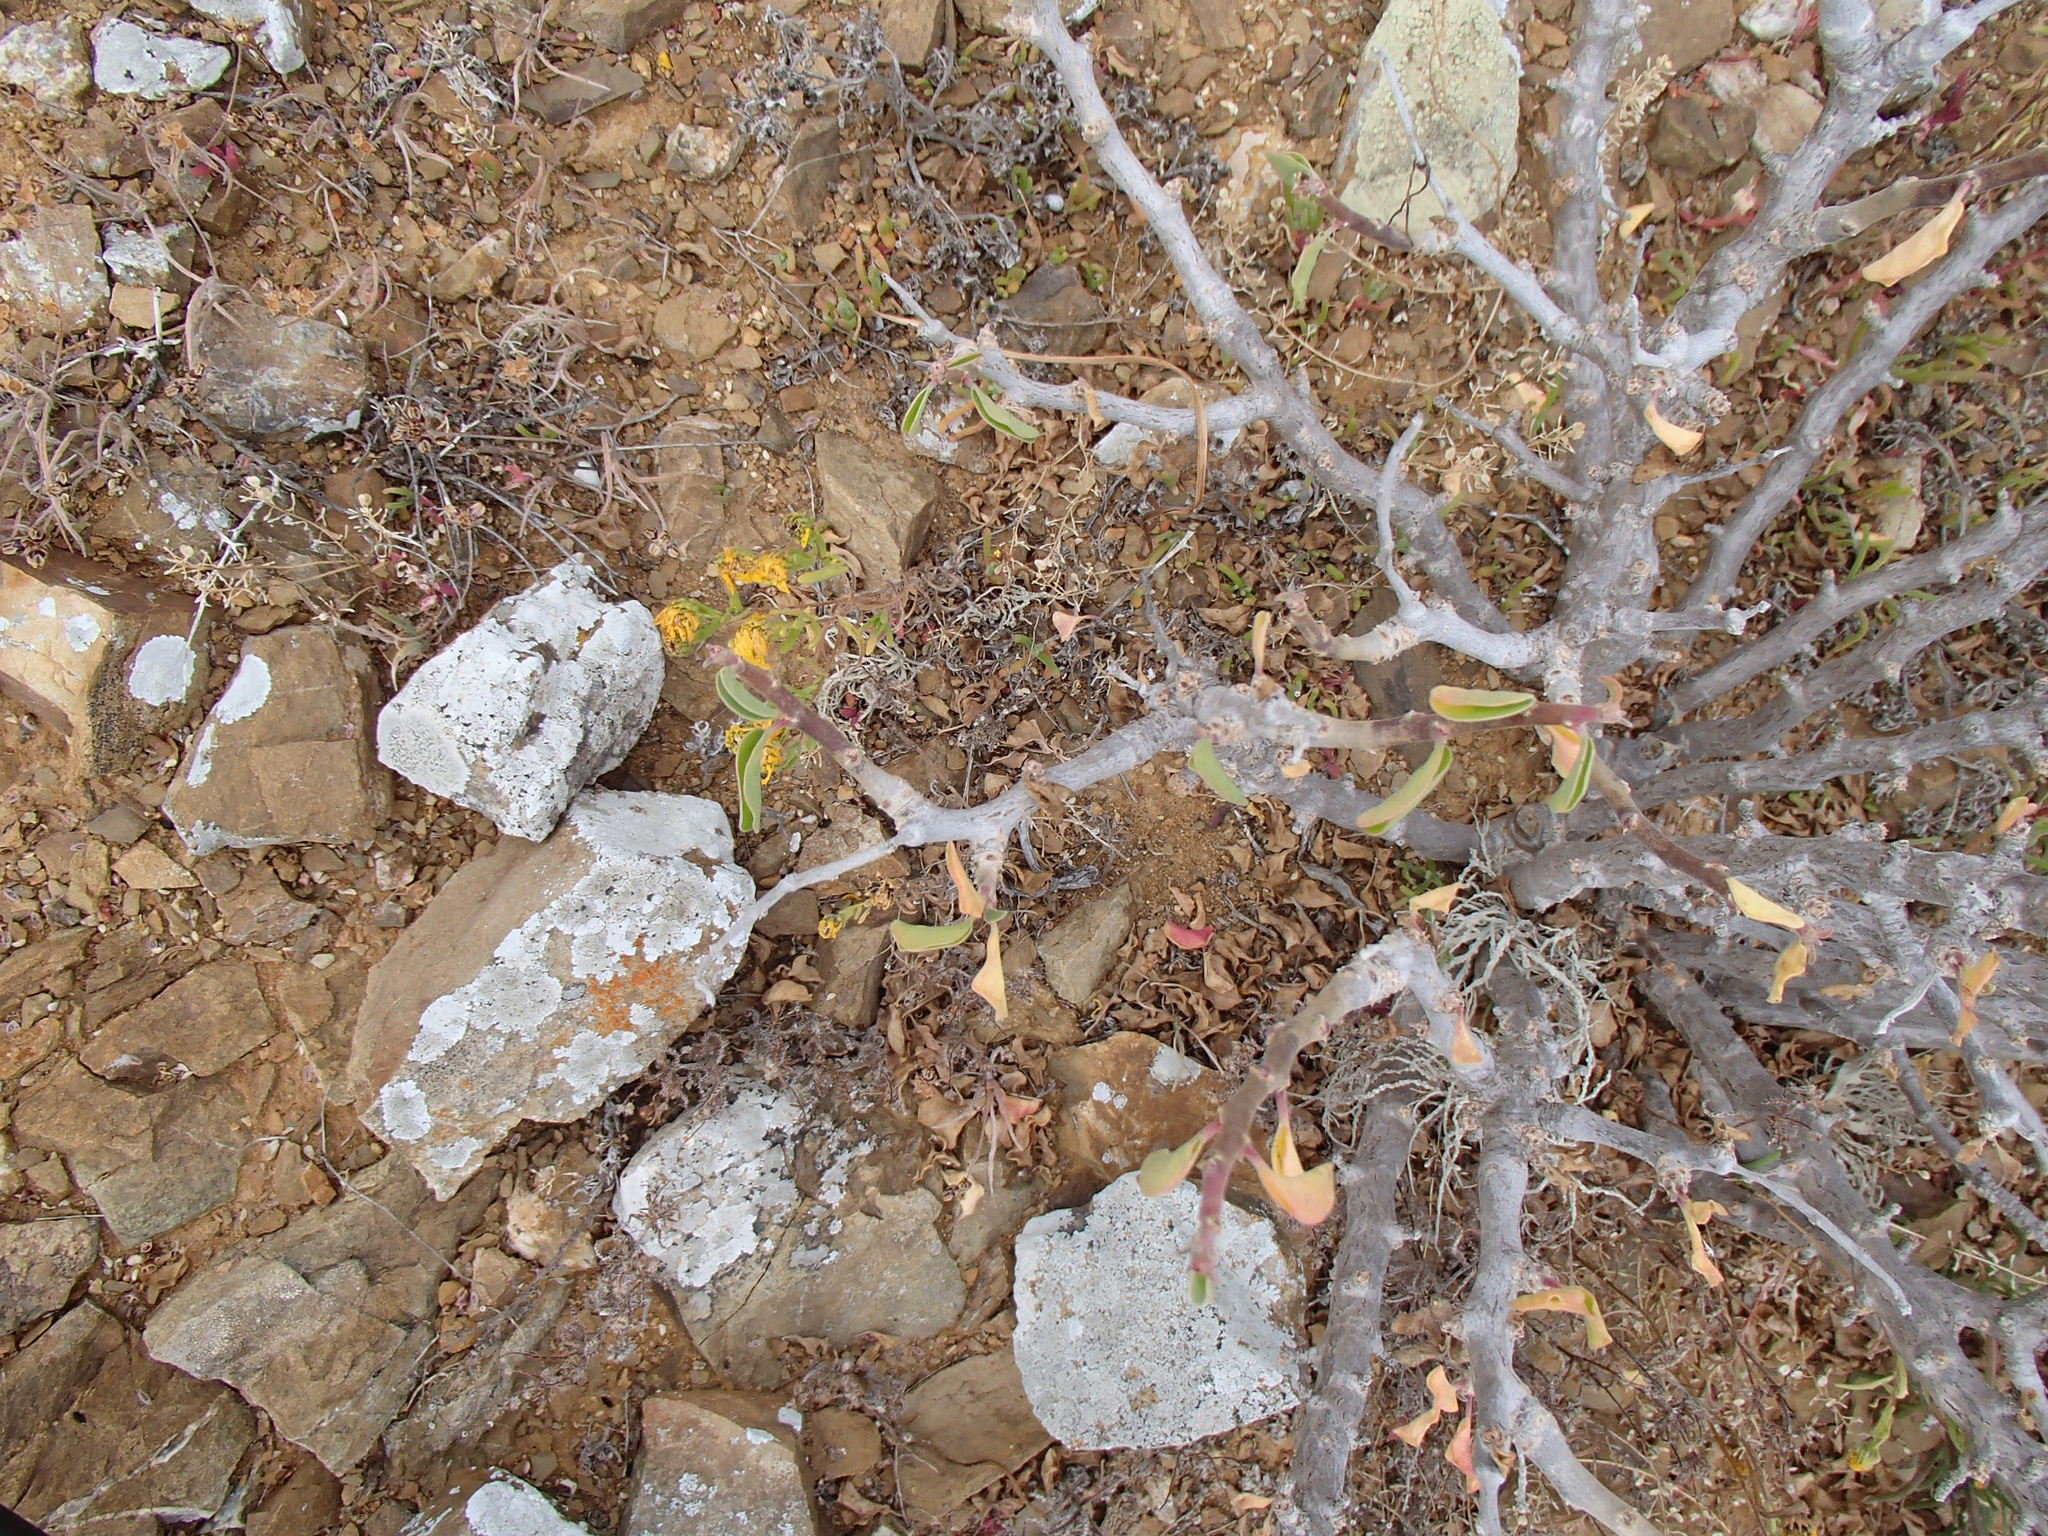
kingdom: Plantae
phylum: Tracheophyta
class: Magnoliopsida
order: Malpighiales
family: Euphorbiaceae
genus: Euphorbia
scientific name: Euphorbia misera
